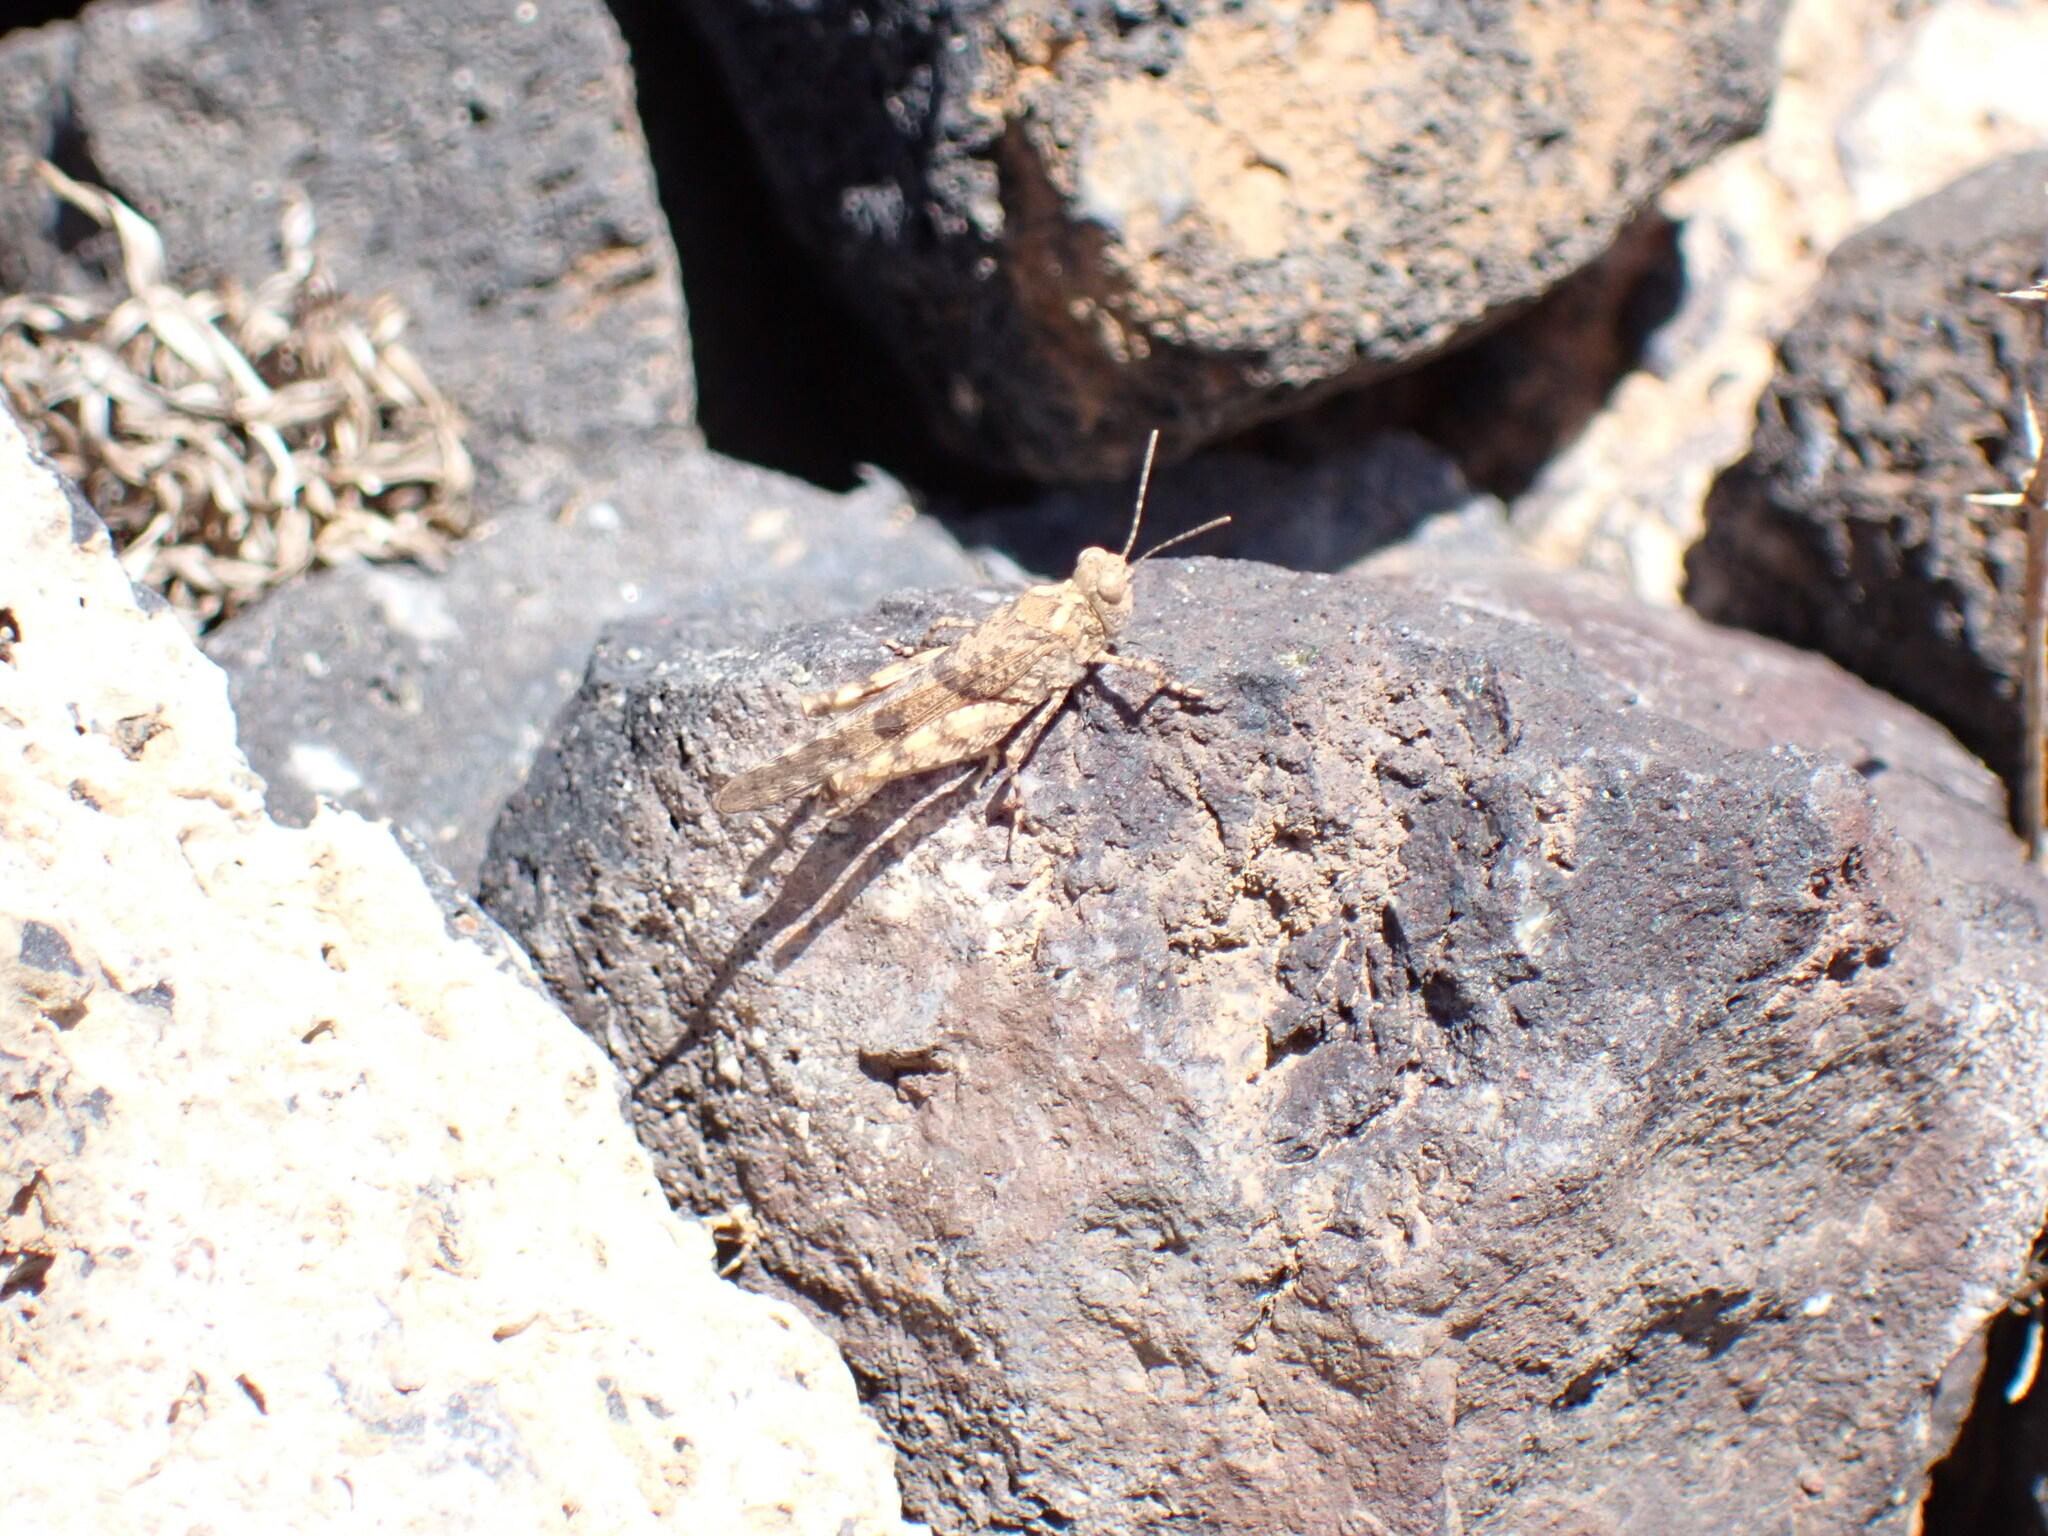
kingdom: Animalia
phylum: Arthropoda
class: Insecta
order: Orthoptera
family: Acrididae
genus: Sphingonotus
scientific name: Sphingonotus picteti
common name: Tenerife sand grasshopper
